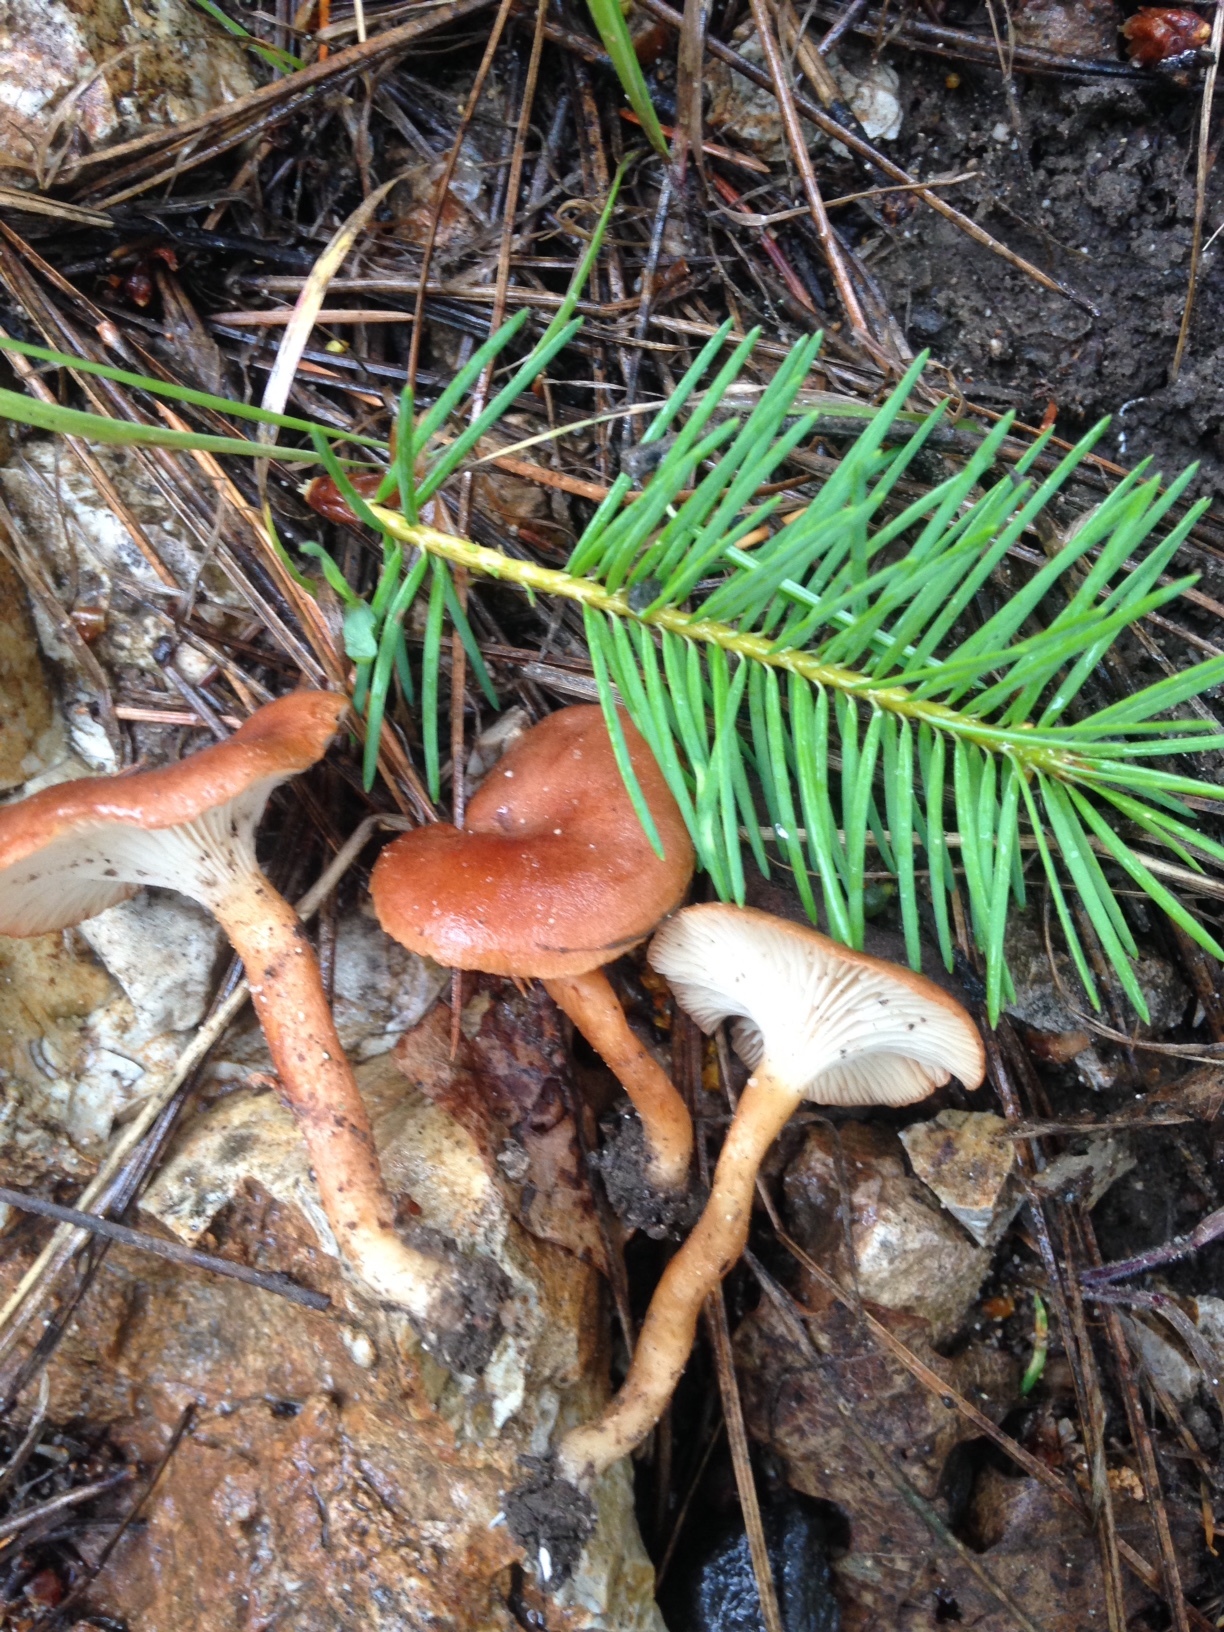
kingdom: Fungi
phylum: Basidiomycota
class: Agaricomycetes
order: Agaricales
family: Pseudoclitocybaceae
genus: Bonomyces
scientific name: Bonomyces sinopicus
